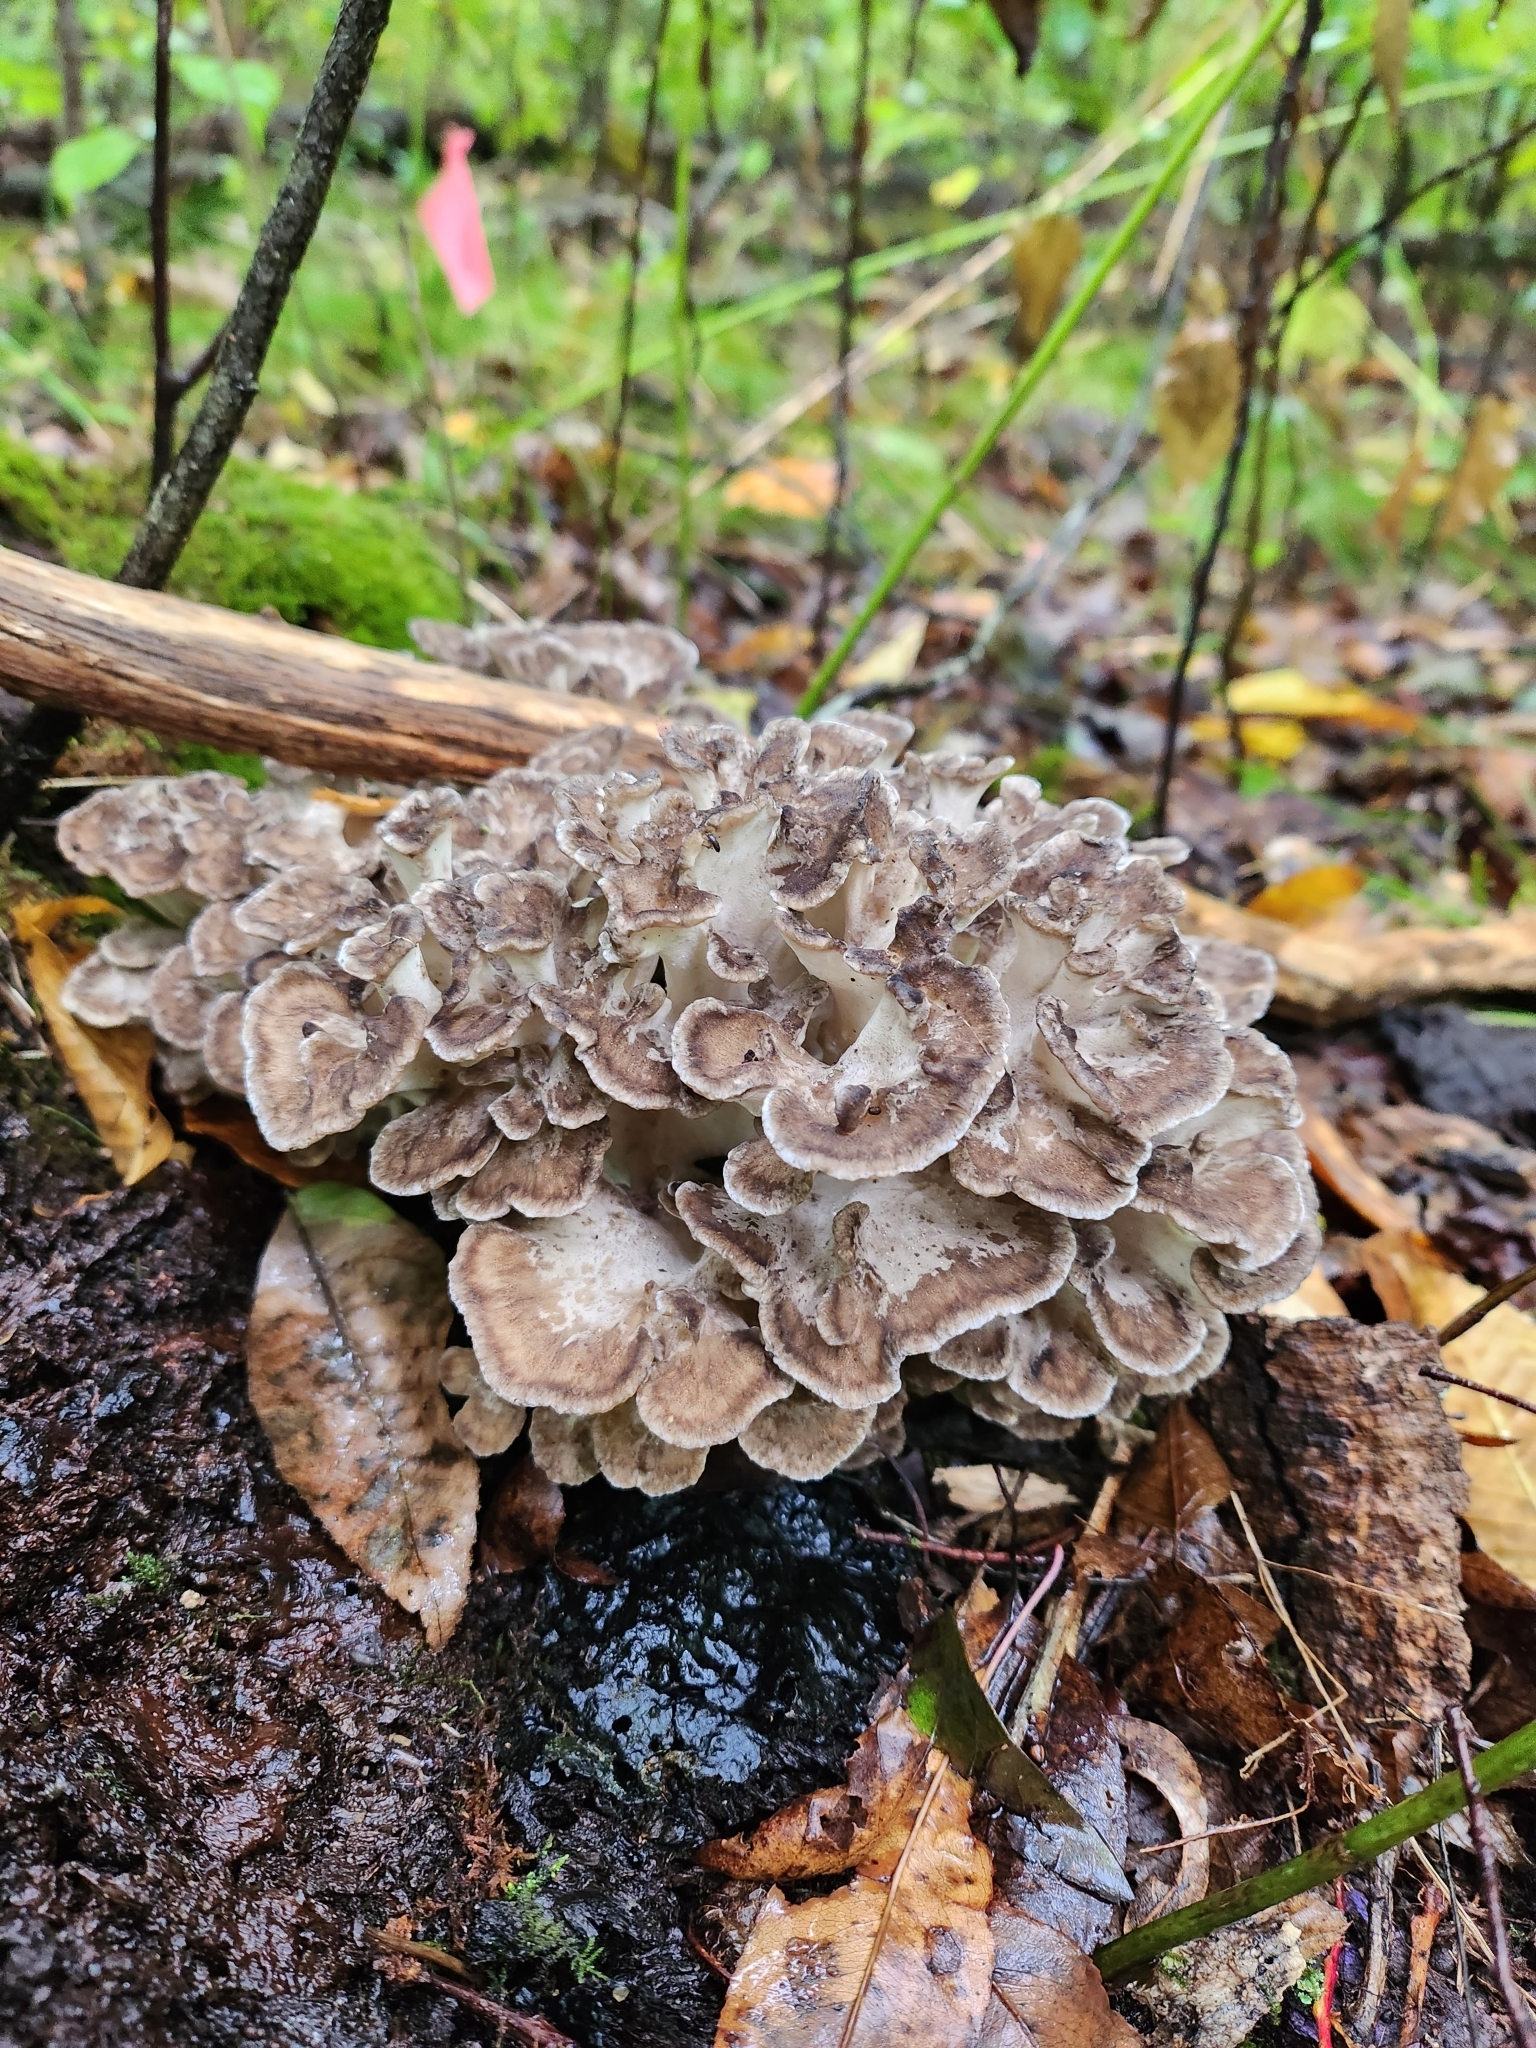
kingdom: Fungi
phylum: Basidiomycota
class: Agaricomycetes
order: Polyporales
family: Grifolaceae
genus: Grifola
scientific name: Grifola frondosa
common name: Hen of the woods
